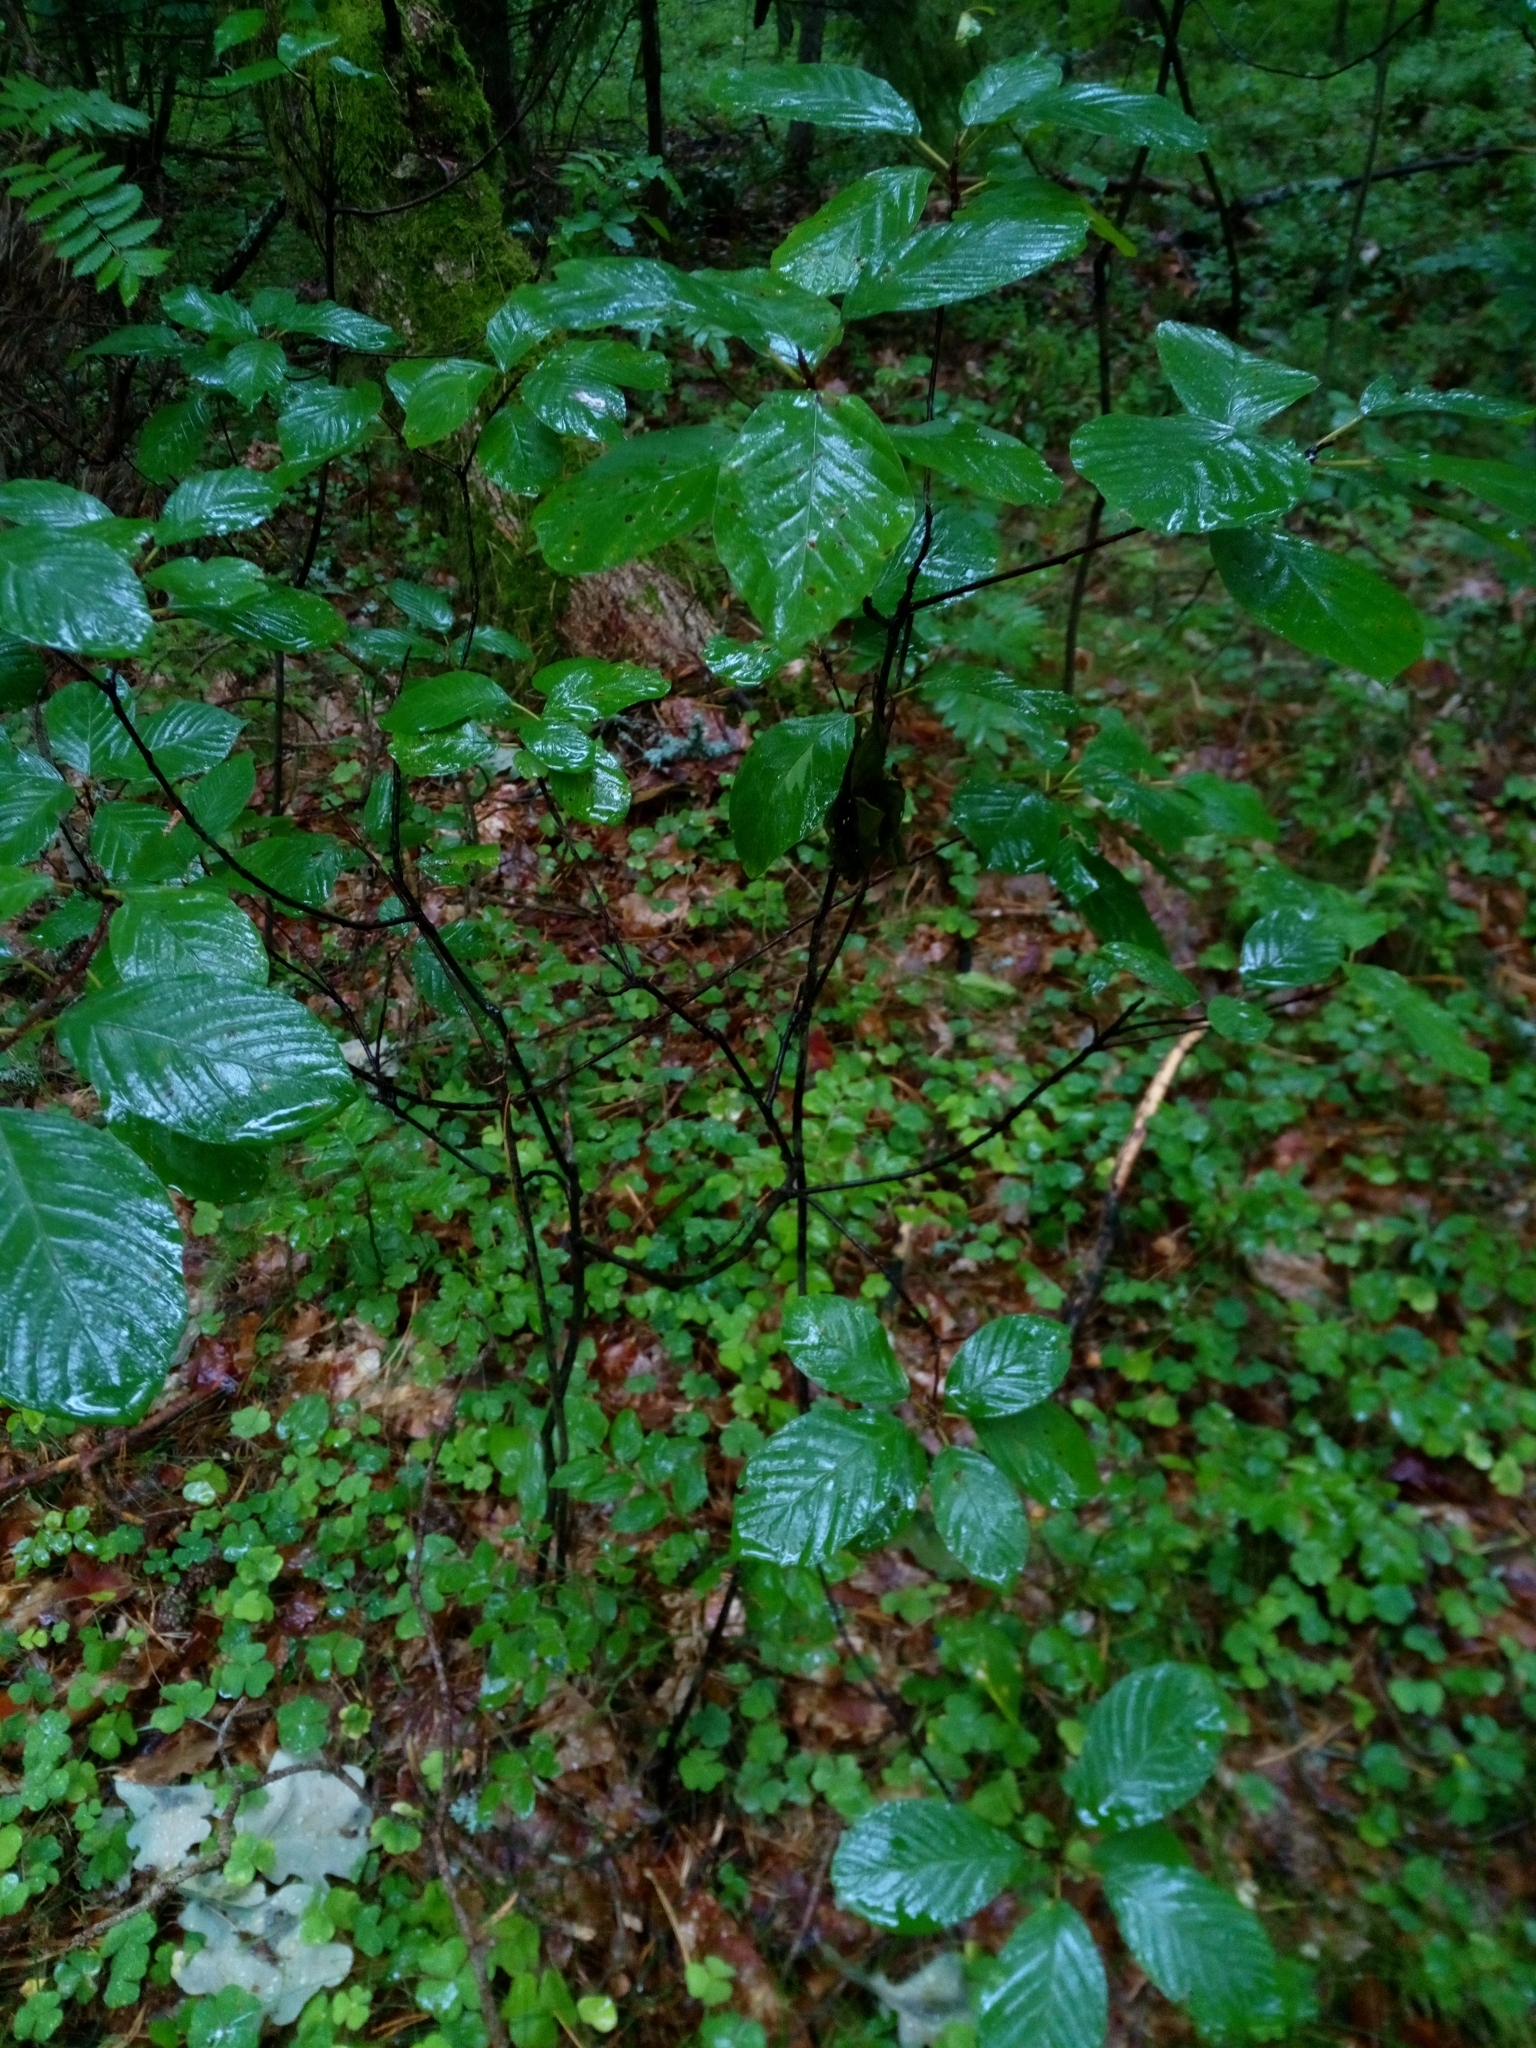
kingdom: Plantae
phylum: Tracheophyta
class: Magnoliopsida
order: Rosales
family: Rhamnaceae
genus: Frangula
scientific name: Frangula alnus
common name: Alder buckthorn
